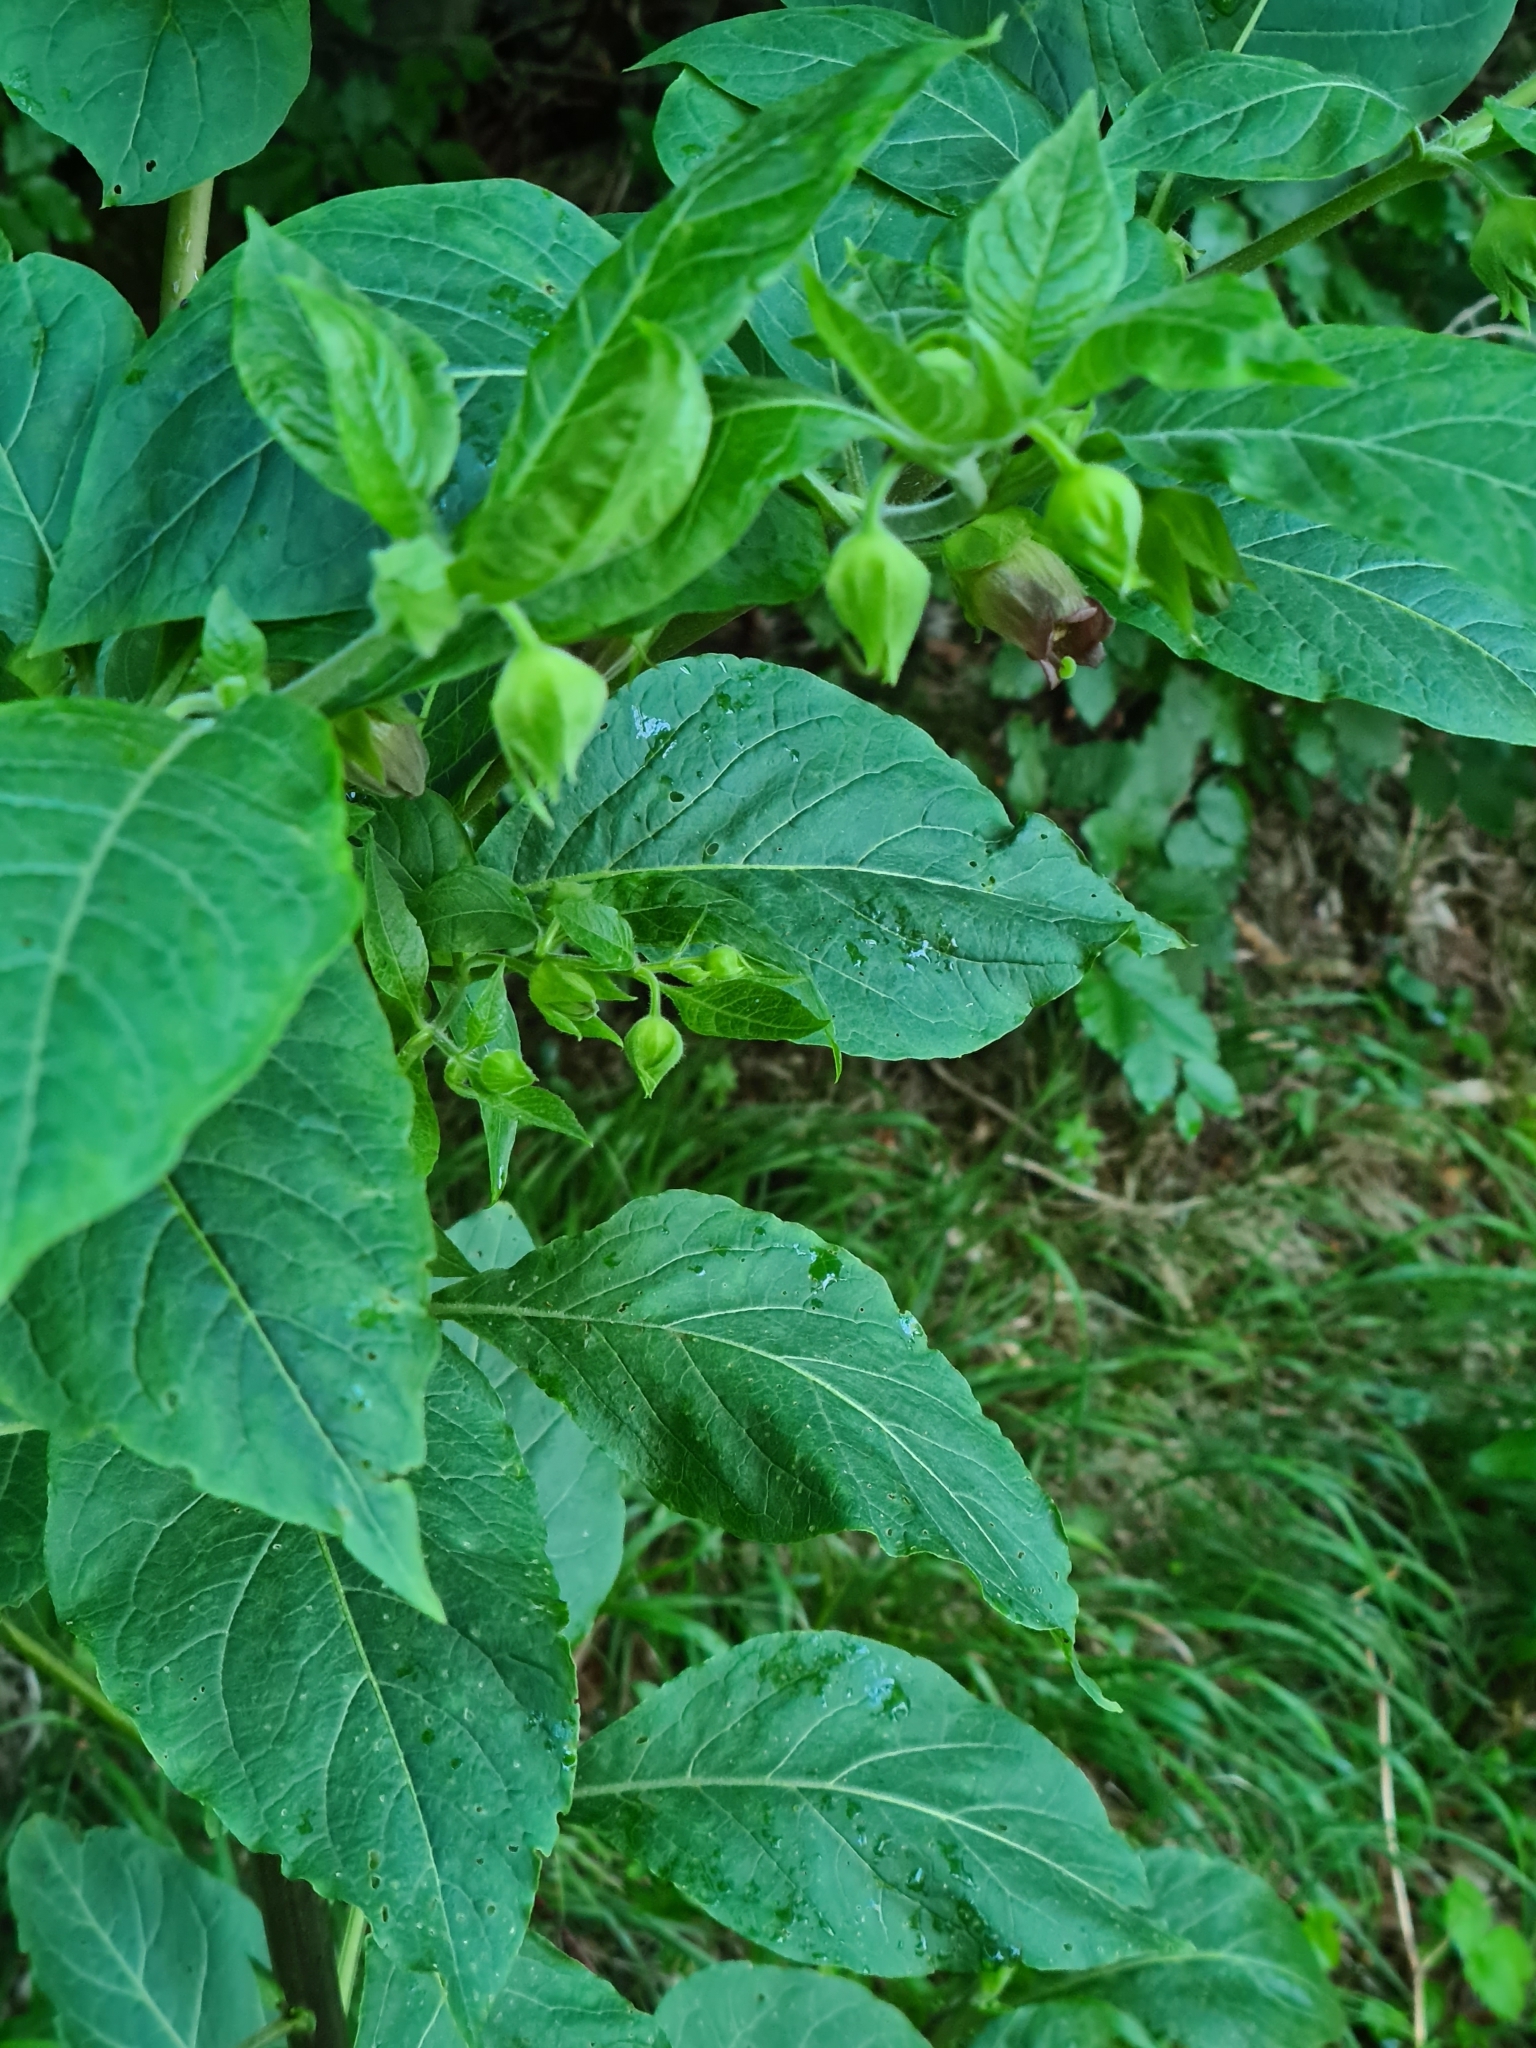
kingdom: Plantae
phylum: Tracheophyta
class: Magnoliopsida
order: Solanales
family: Solanaceae
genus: Atropa
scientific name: Atropa belladonna
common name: Deadly nightshade
